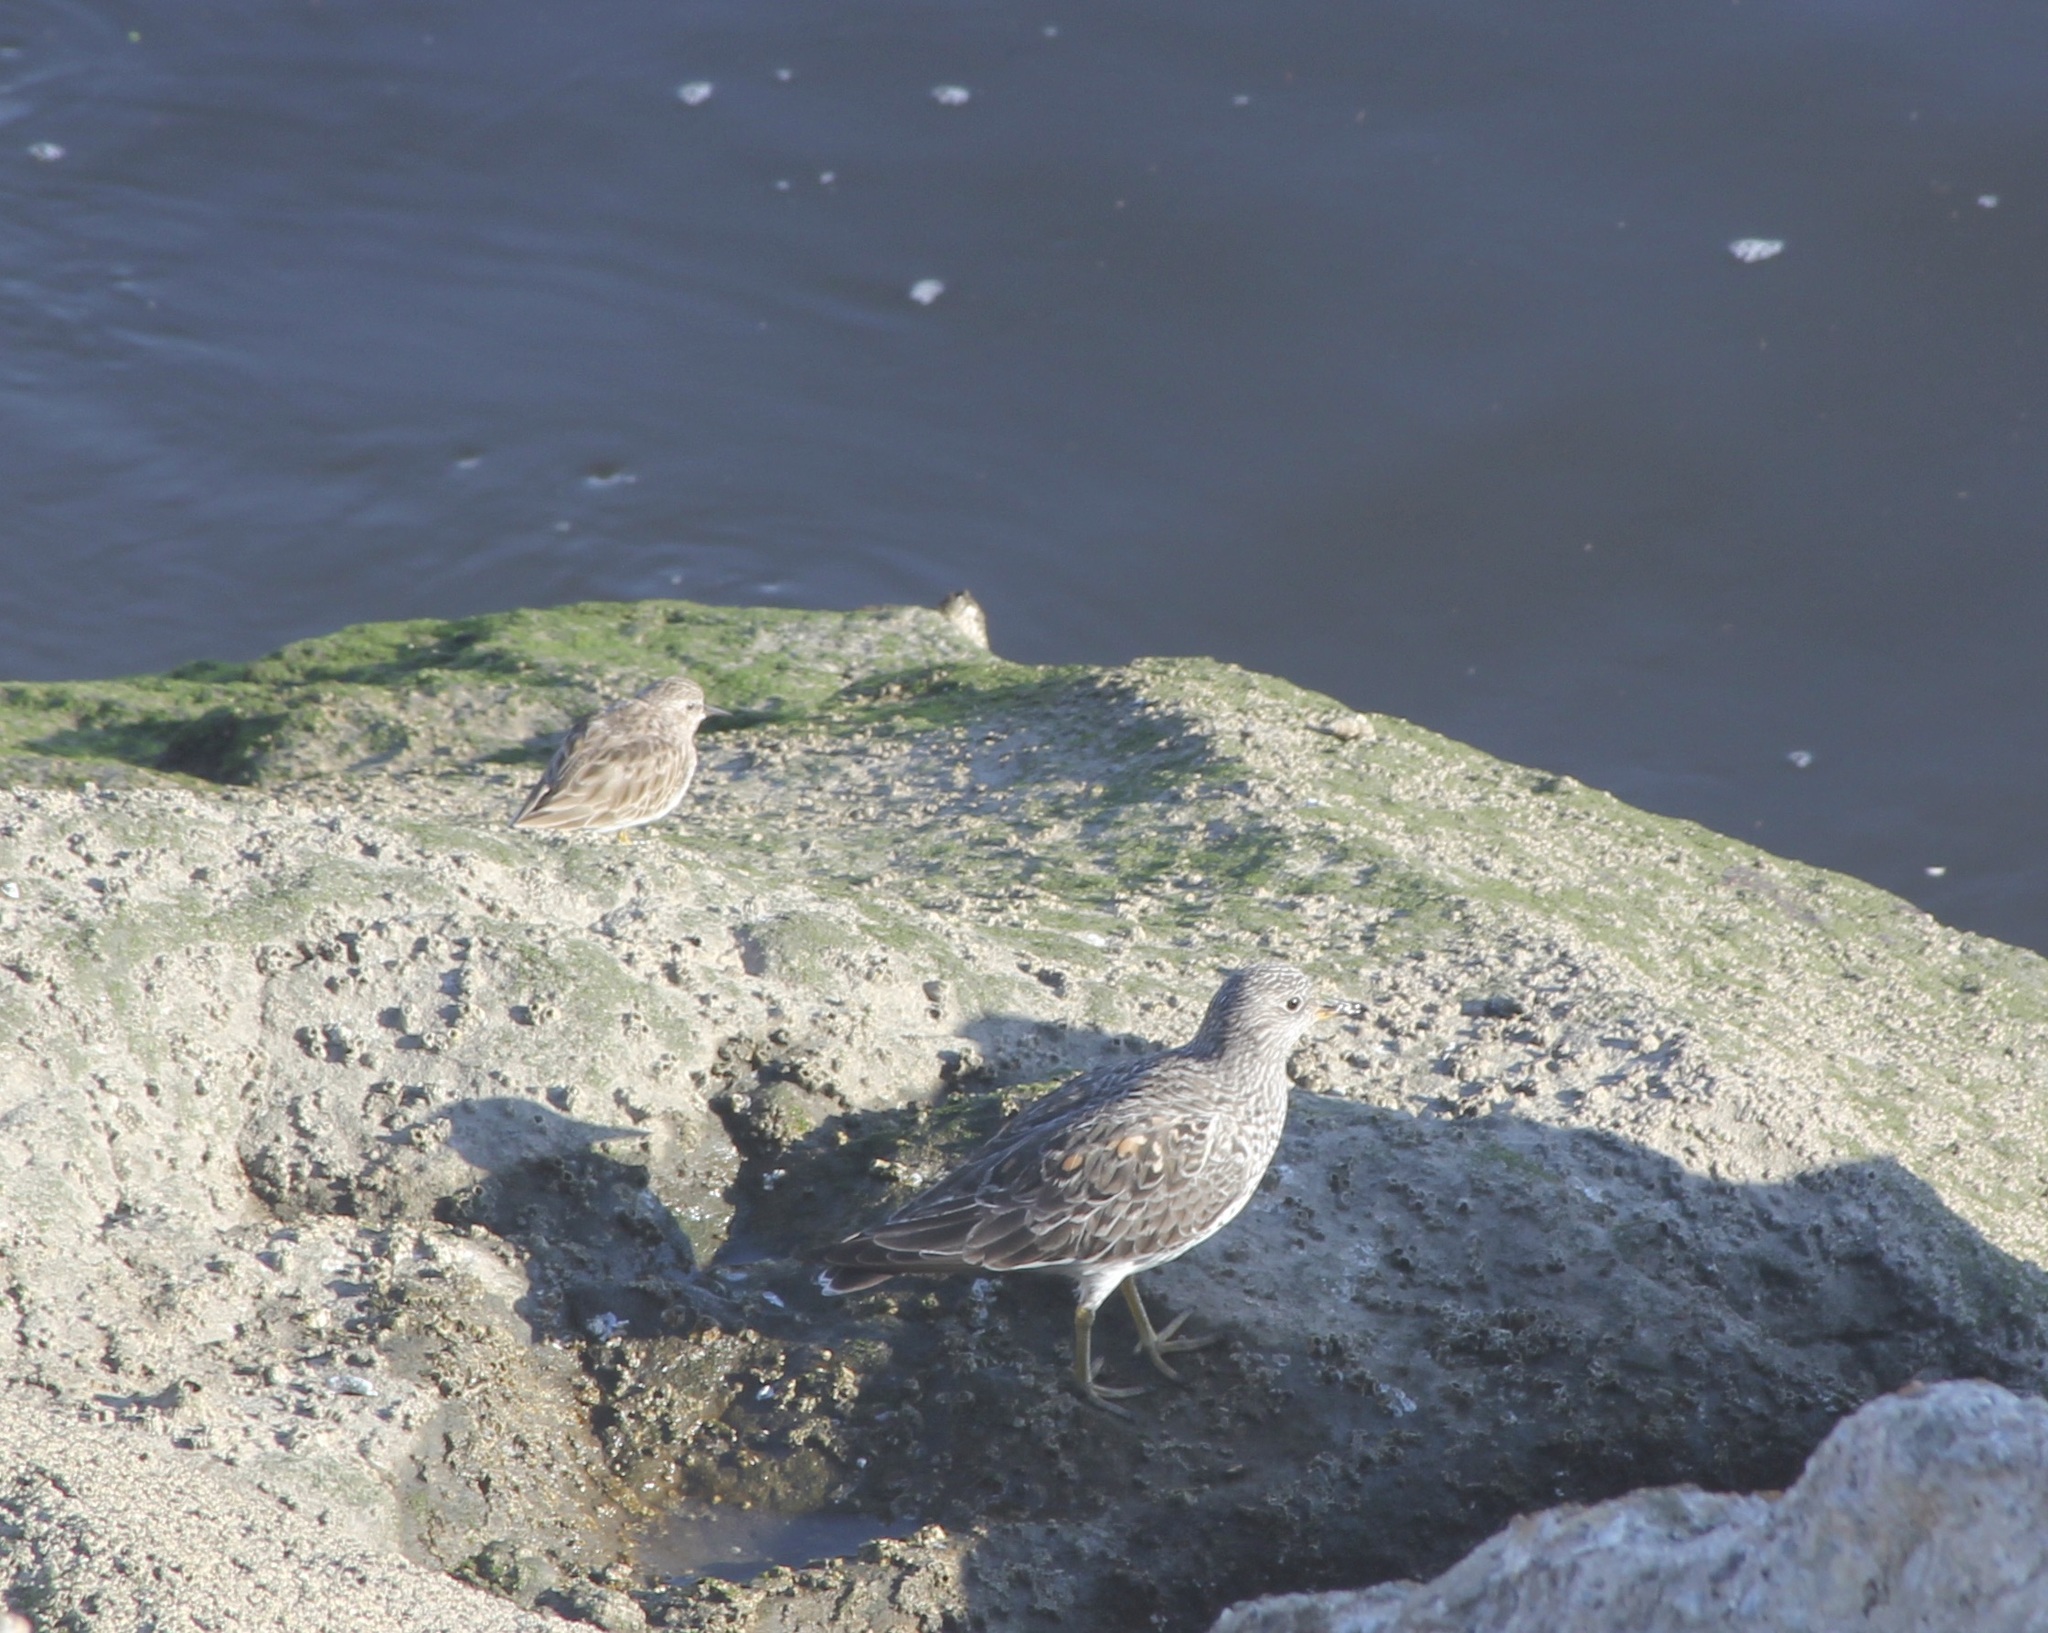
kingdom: Animalia
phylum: Chordata
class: Aves
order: Charadriiformes
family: Scolopacidae
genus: Calidris
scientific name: Calidris virgata
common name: Surfbird
